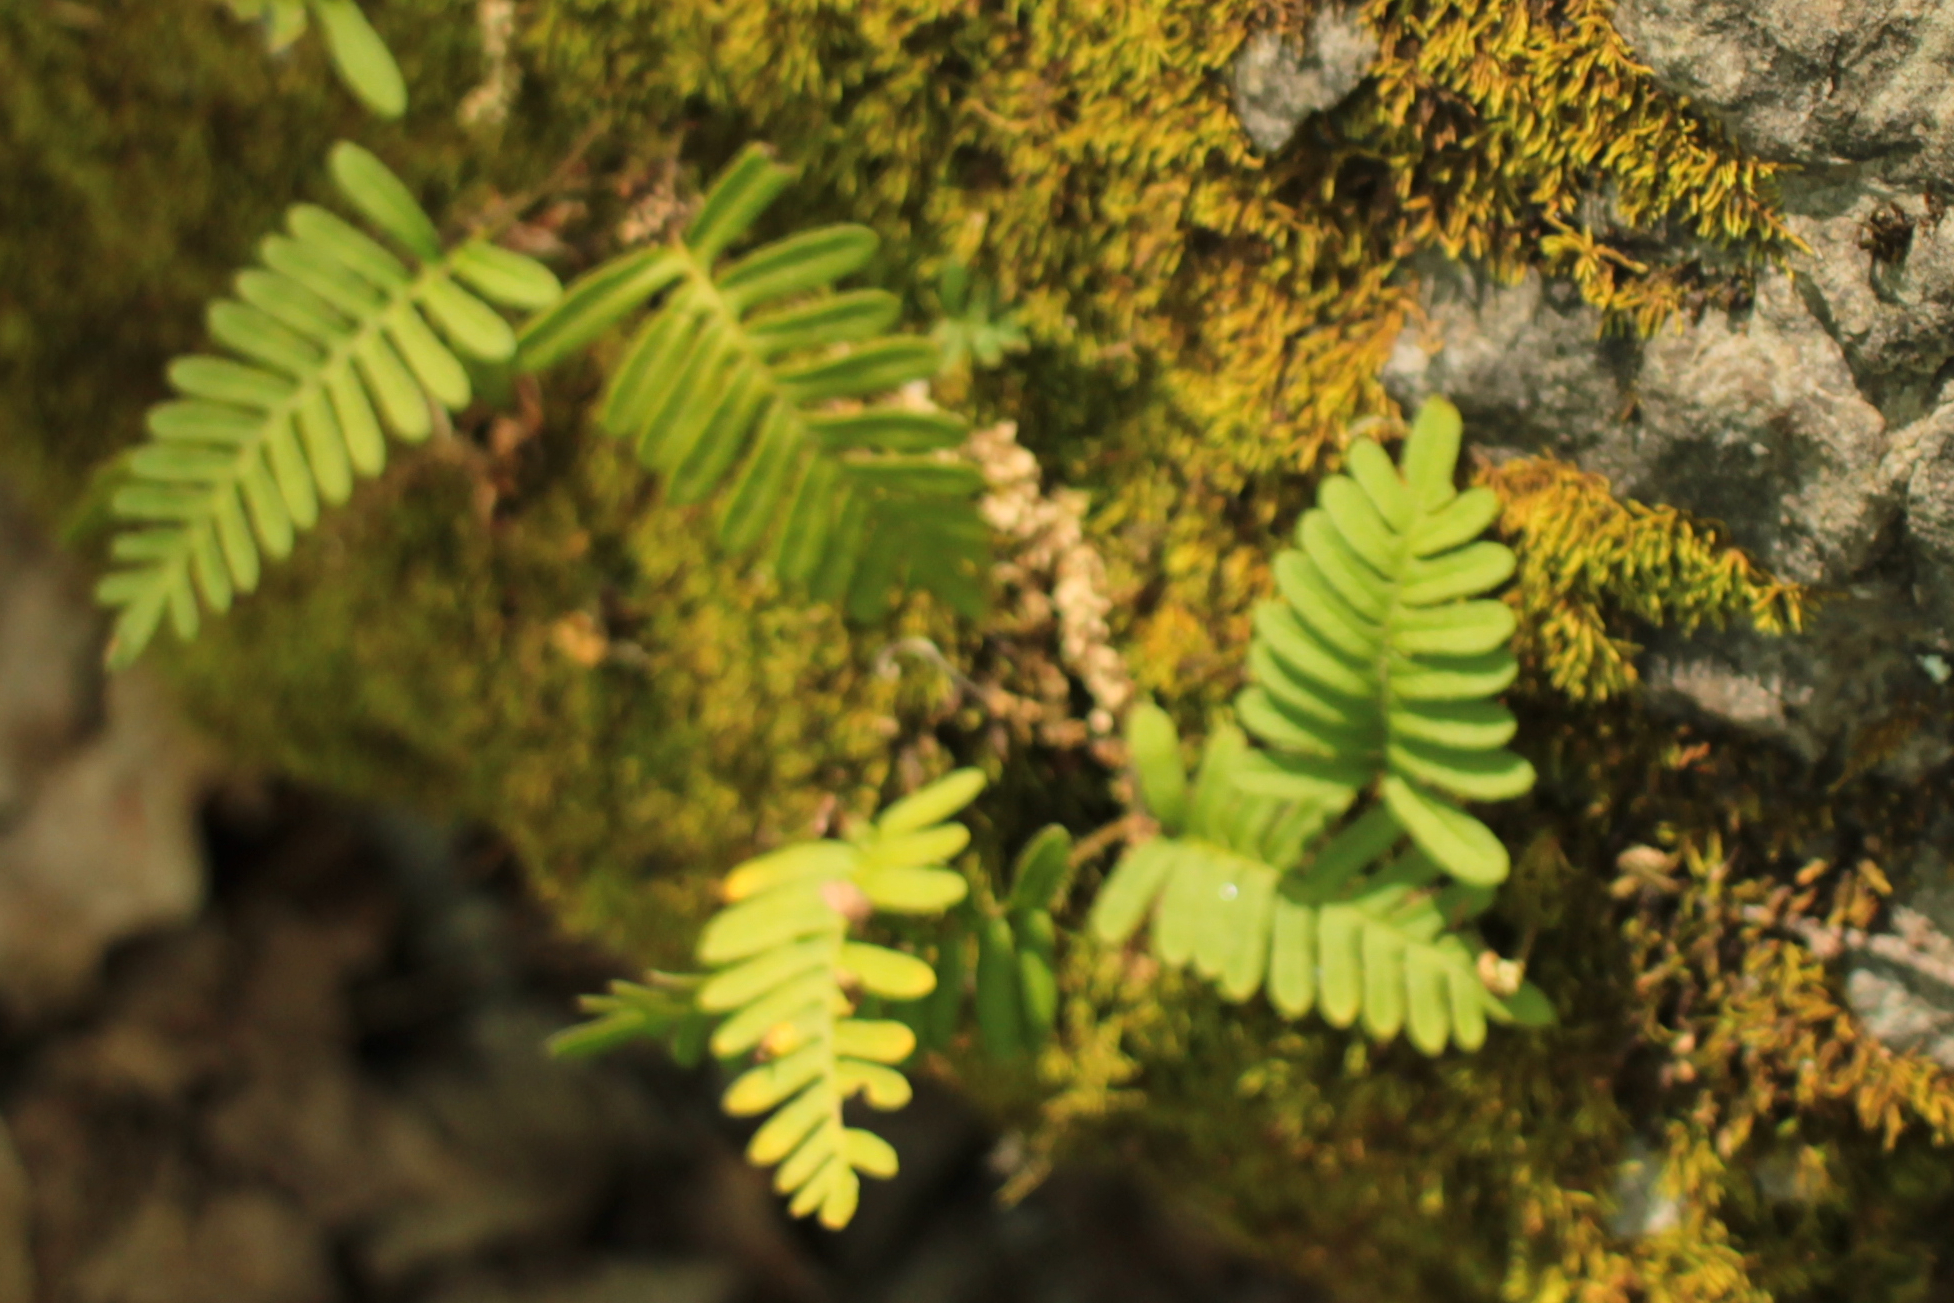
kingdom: Plantae
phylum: Tracheophyta
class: Polypodiopsida
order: Polypodiales
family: Polypodiaceae
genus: Pleopeltis
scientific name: Pleopeltis michauxiana
